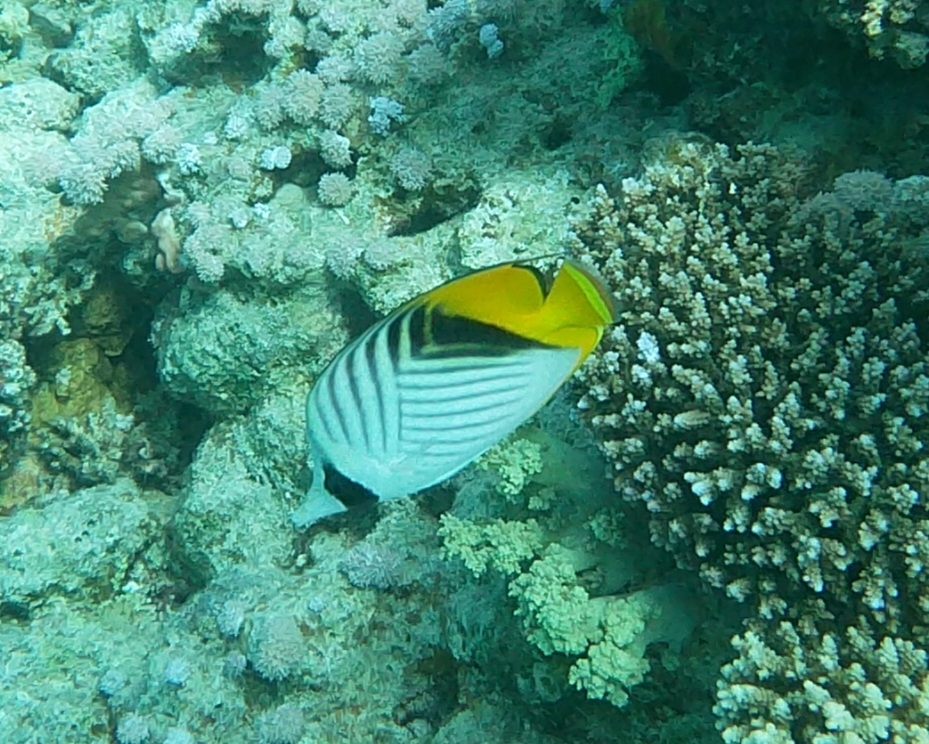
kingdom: Animalia
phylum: Chordata
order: Perciformes
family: Chaetodontidae
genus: Chaetodon
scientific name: Chaetodon auriga
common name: Threadfin butterflyfish
